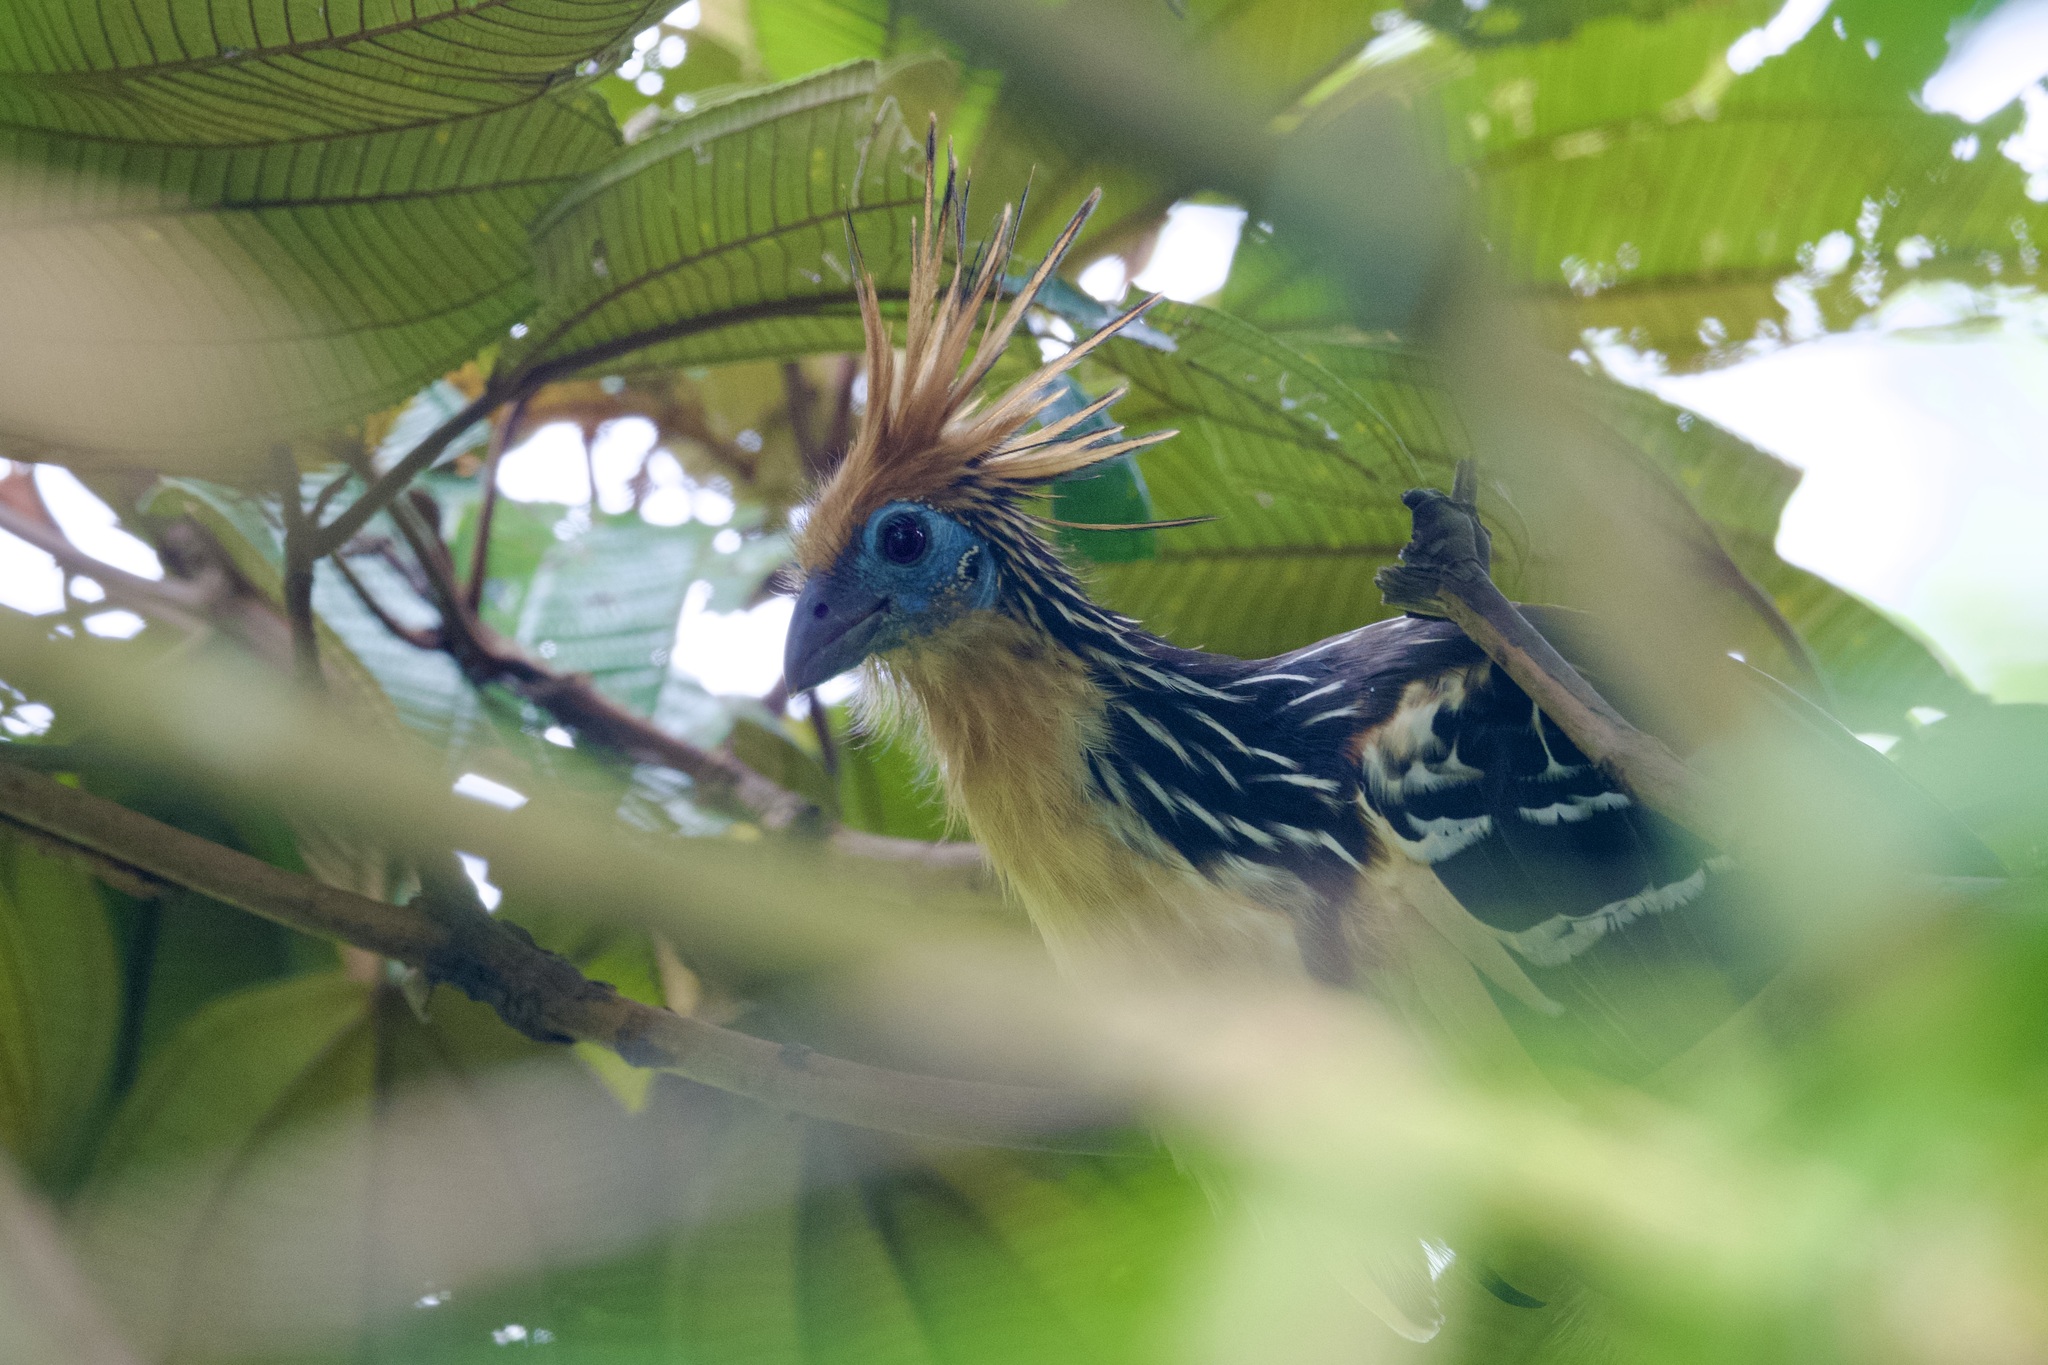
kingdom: Animalia
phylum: Chordata
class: Aves
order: Opisthocomiformes
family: Opisthocomidae
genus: Opisthocomus
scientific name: Opisthocomus hoazin
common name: Hoatzin
